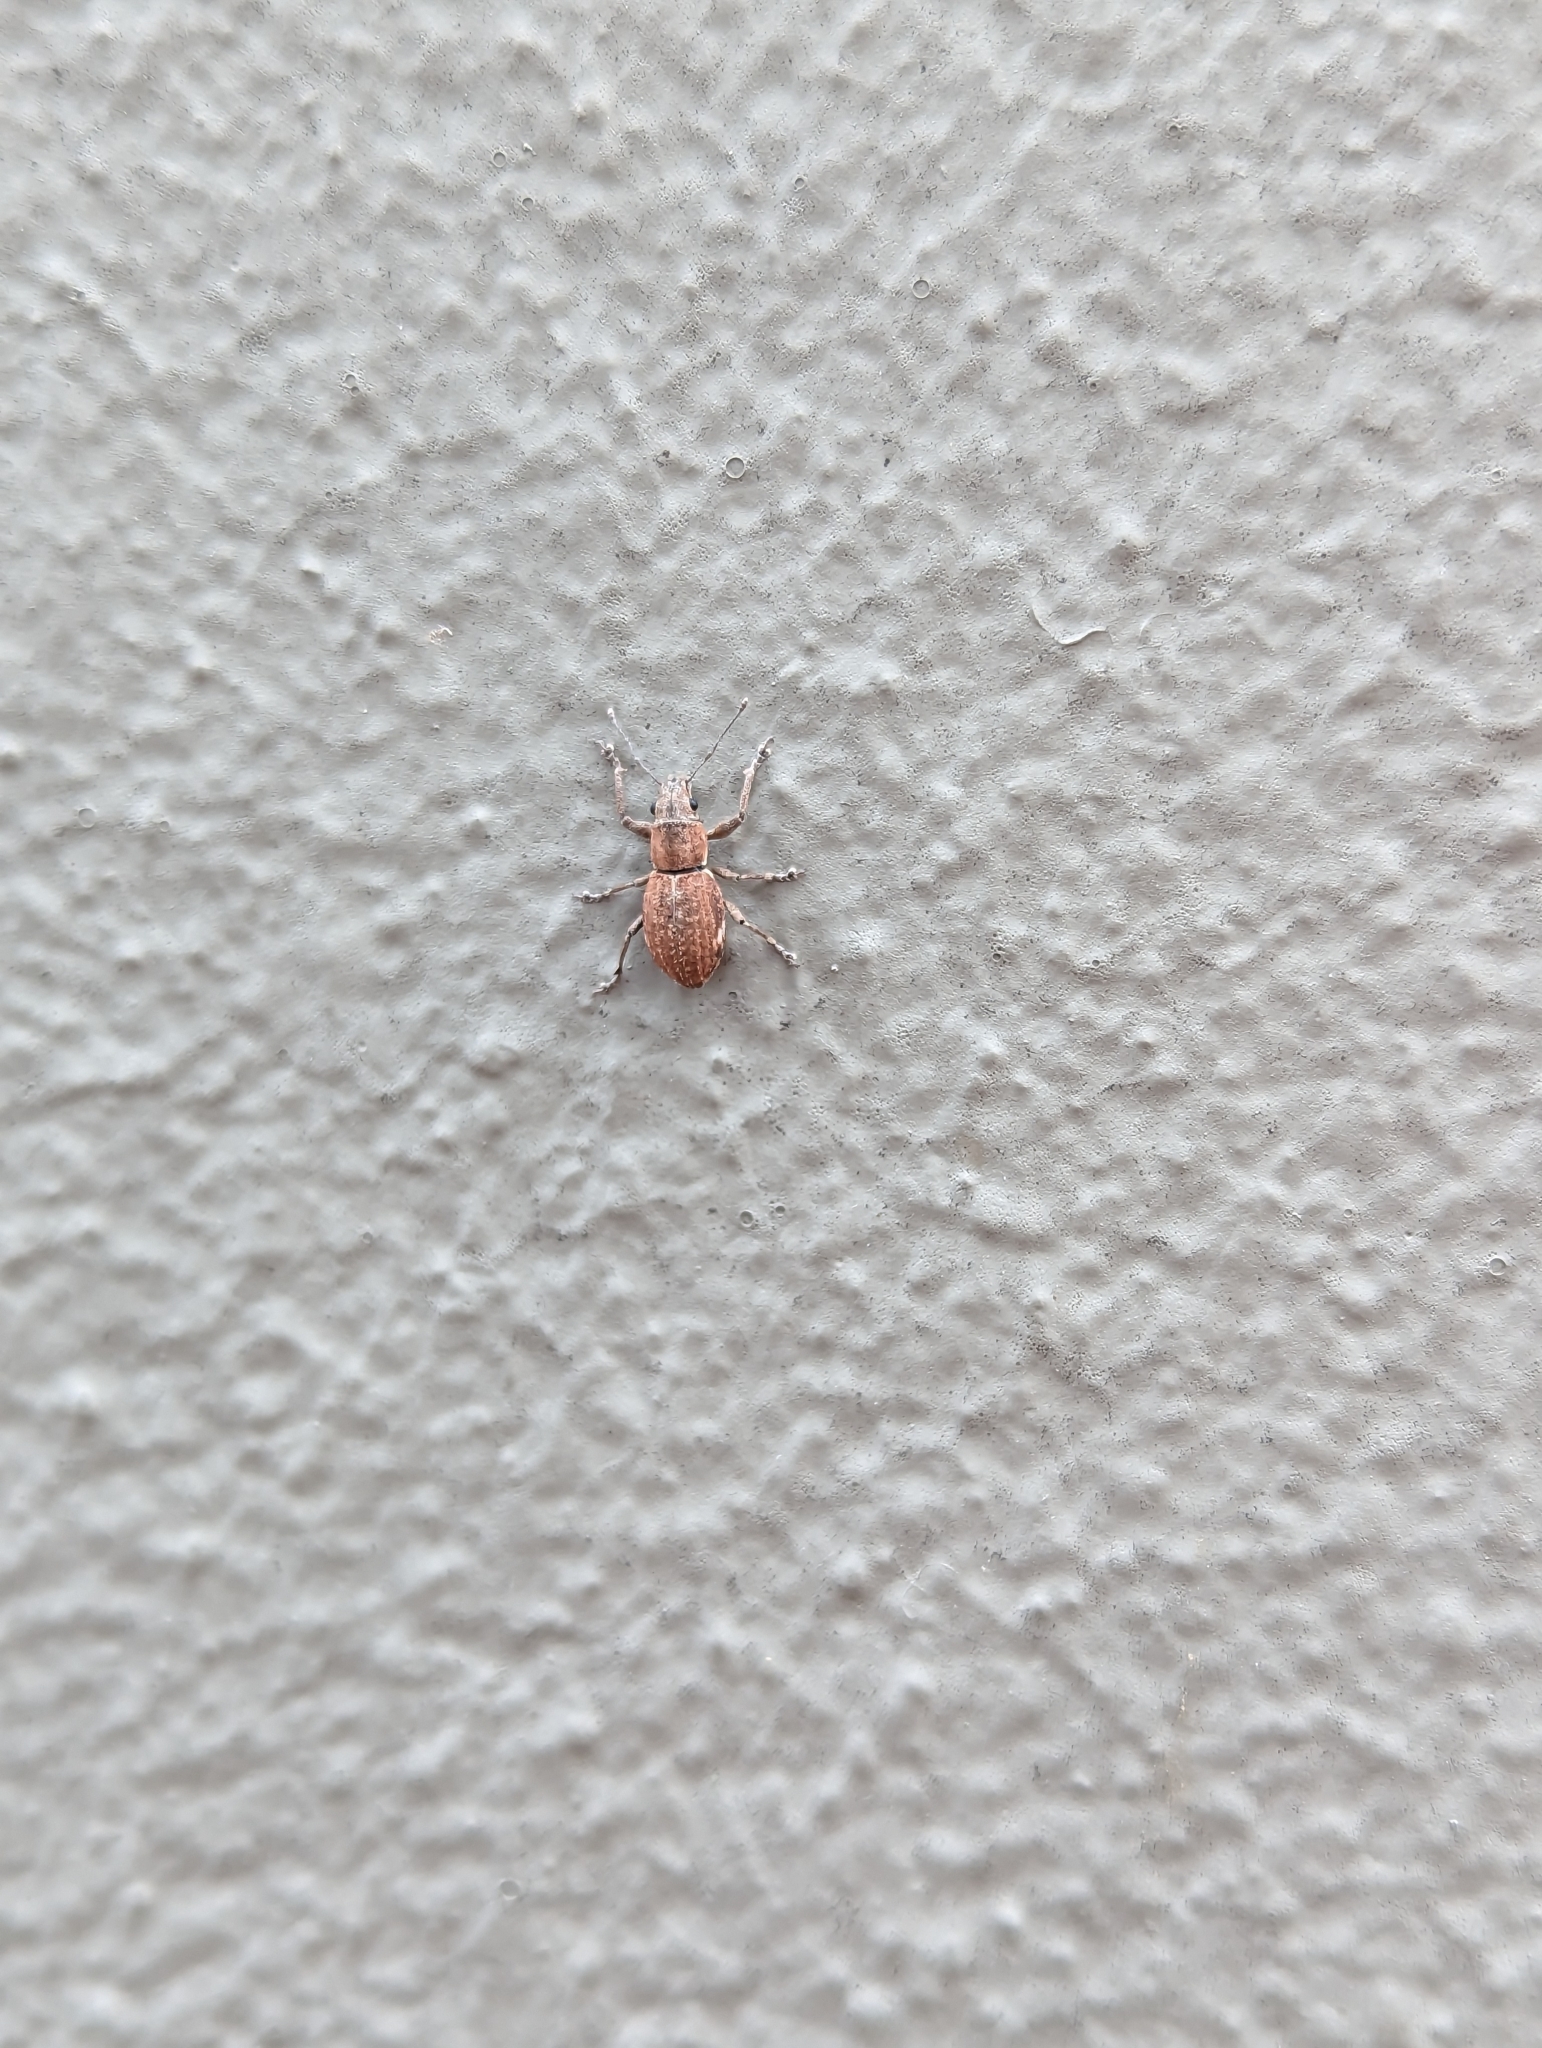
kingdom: Animalia
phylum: Arthropoda
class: Insecta
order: Coleoptera
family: Curculionidae
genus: Naupactus
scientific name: Naupactus cervinus
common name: Fuller rose beetle
